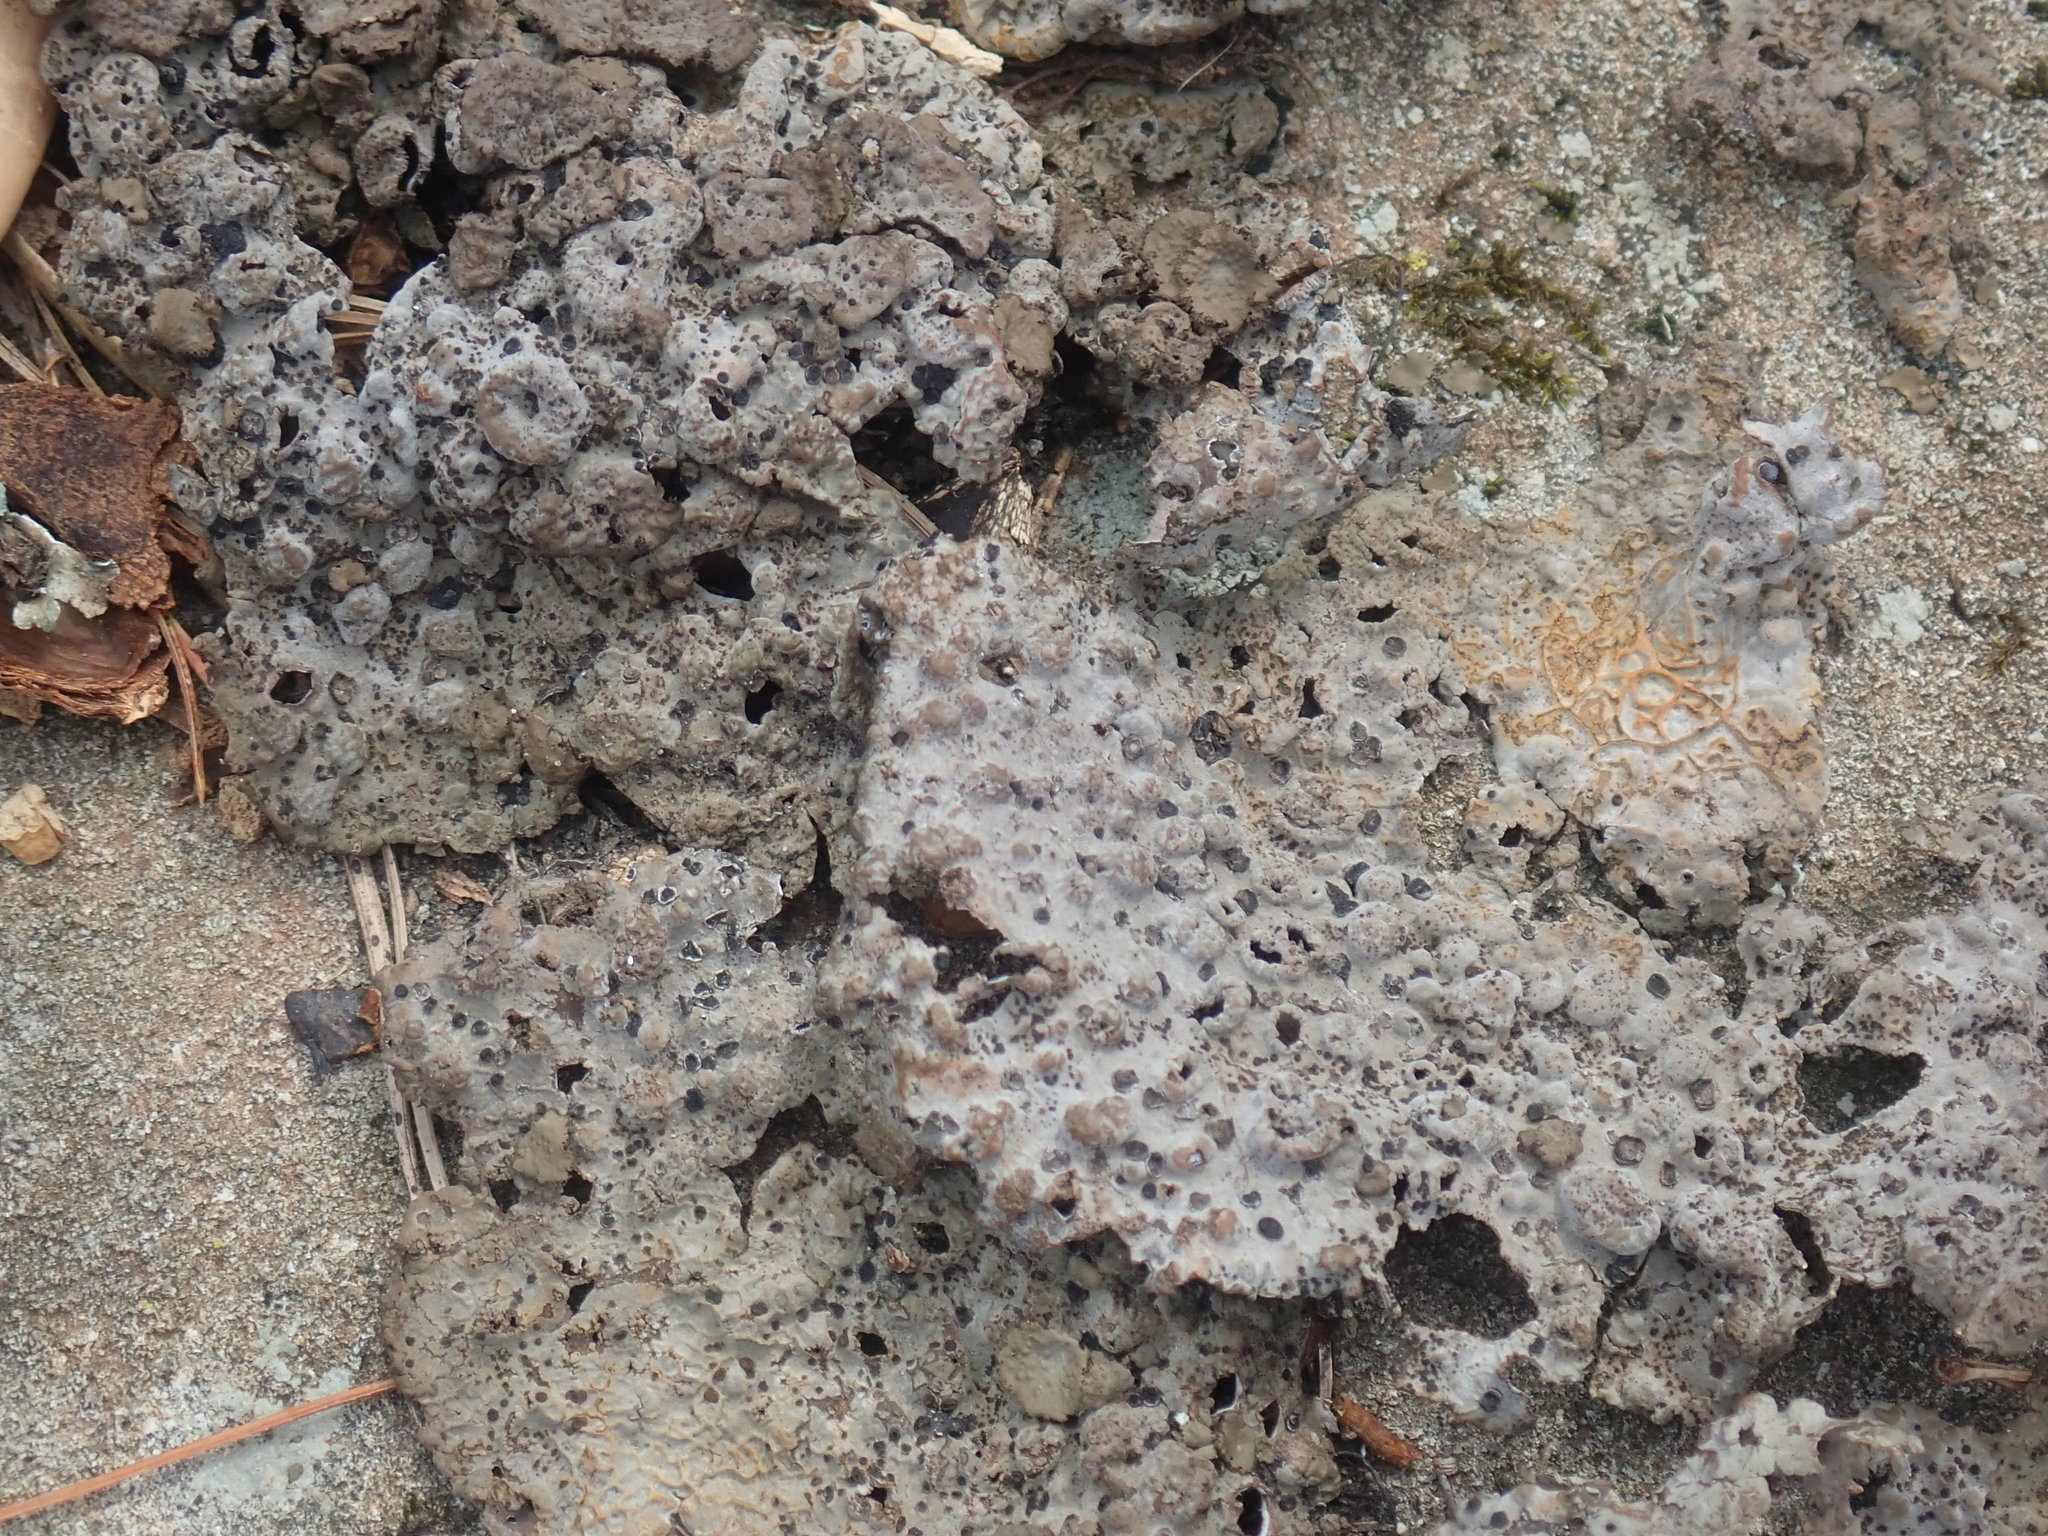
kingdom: Fungi
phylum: Ascomycota
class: Lecanoromycetes
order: Umbilicariales
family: Umbilicariaceae
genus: Lasallia
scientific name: Lasallia papulosa
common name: Common toadskin lichen
